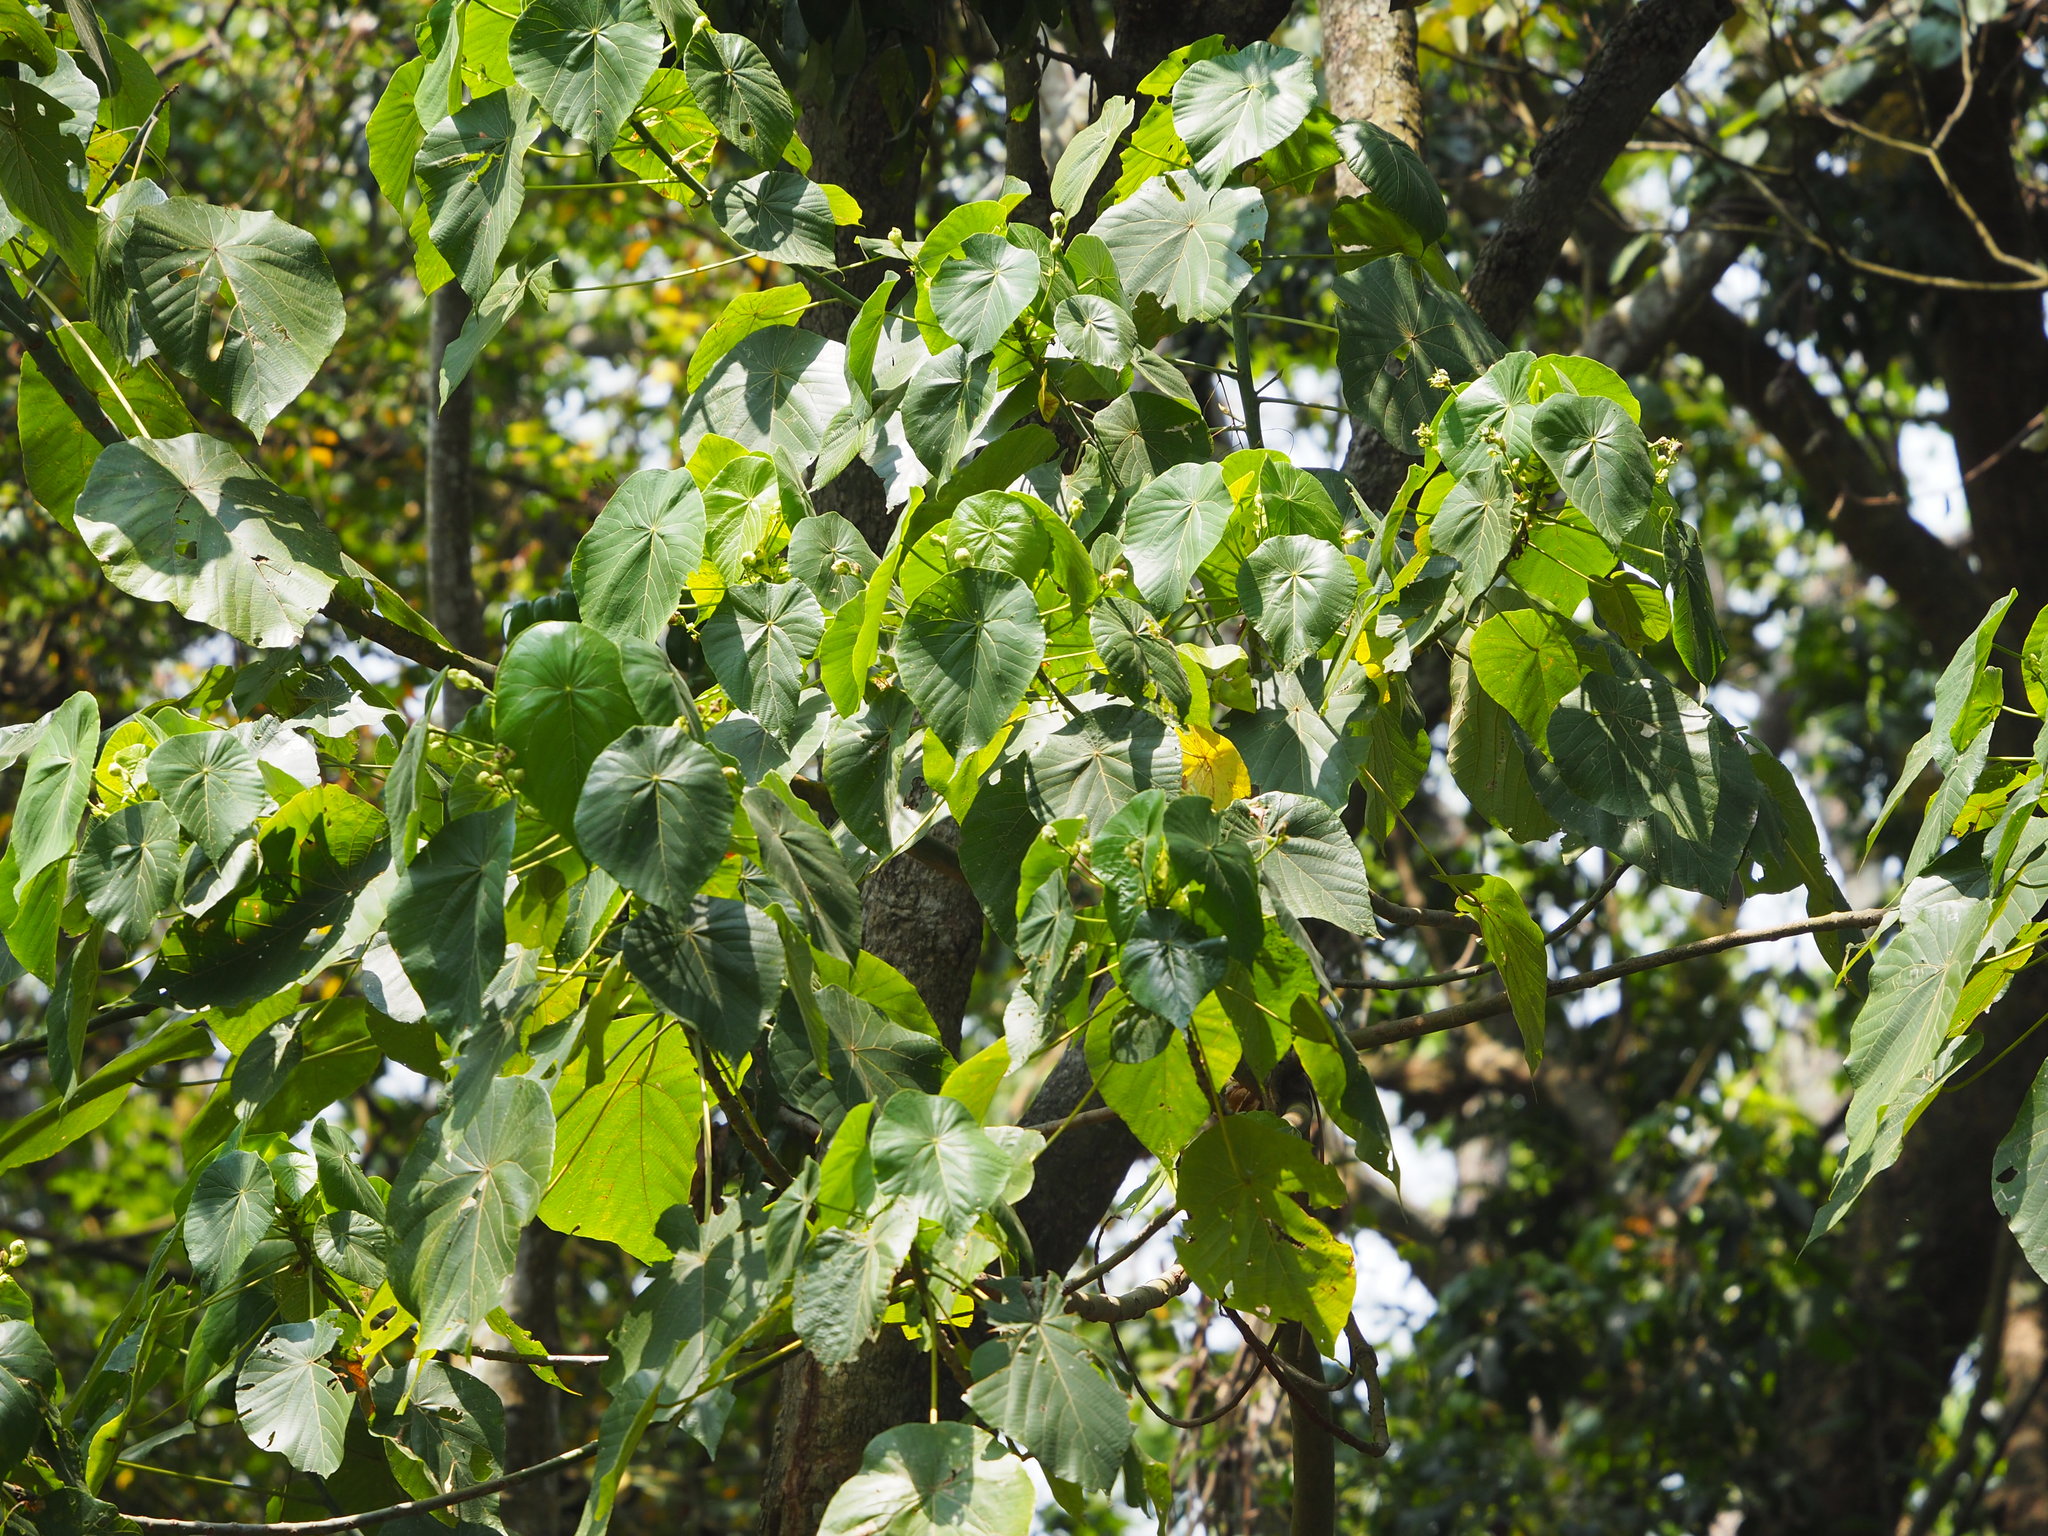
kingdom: Plantae
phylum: Tracheophyta
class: Magnoliopsida
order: Malpighiales
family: Euphorbiaceae
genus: Macaranga
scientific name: Macaranga tanarius
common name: Parasol leaf tree
